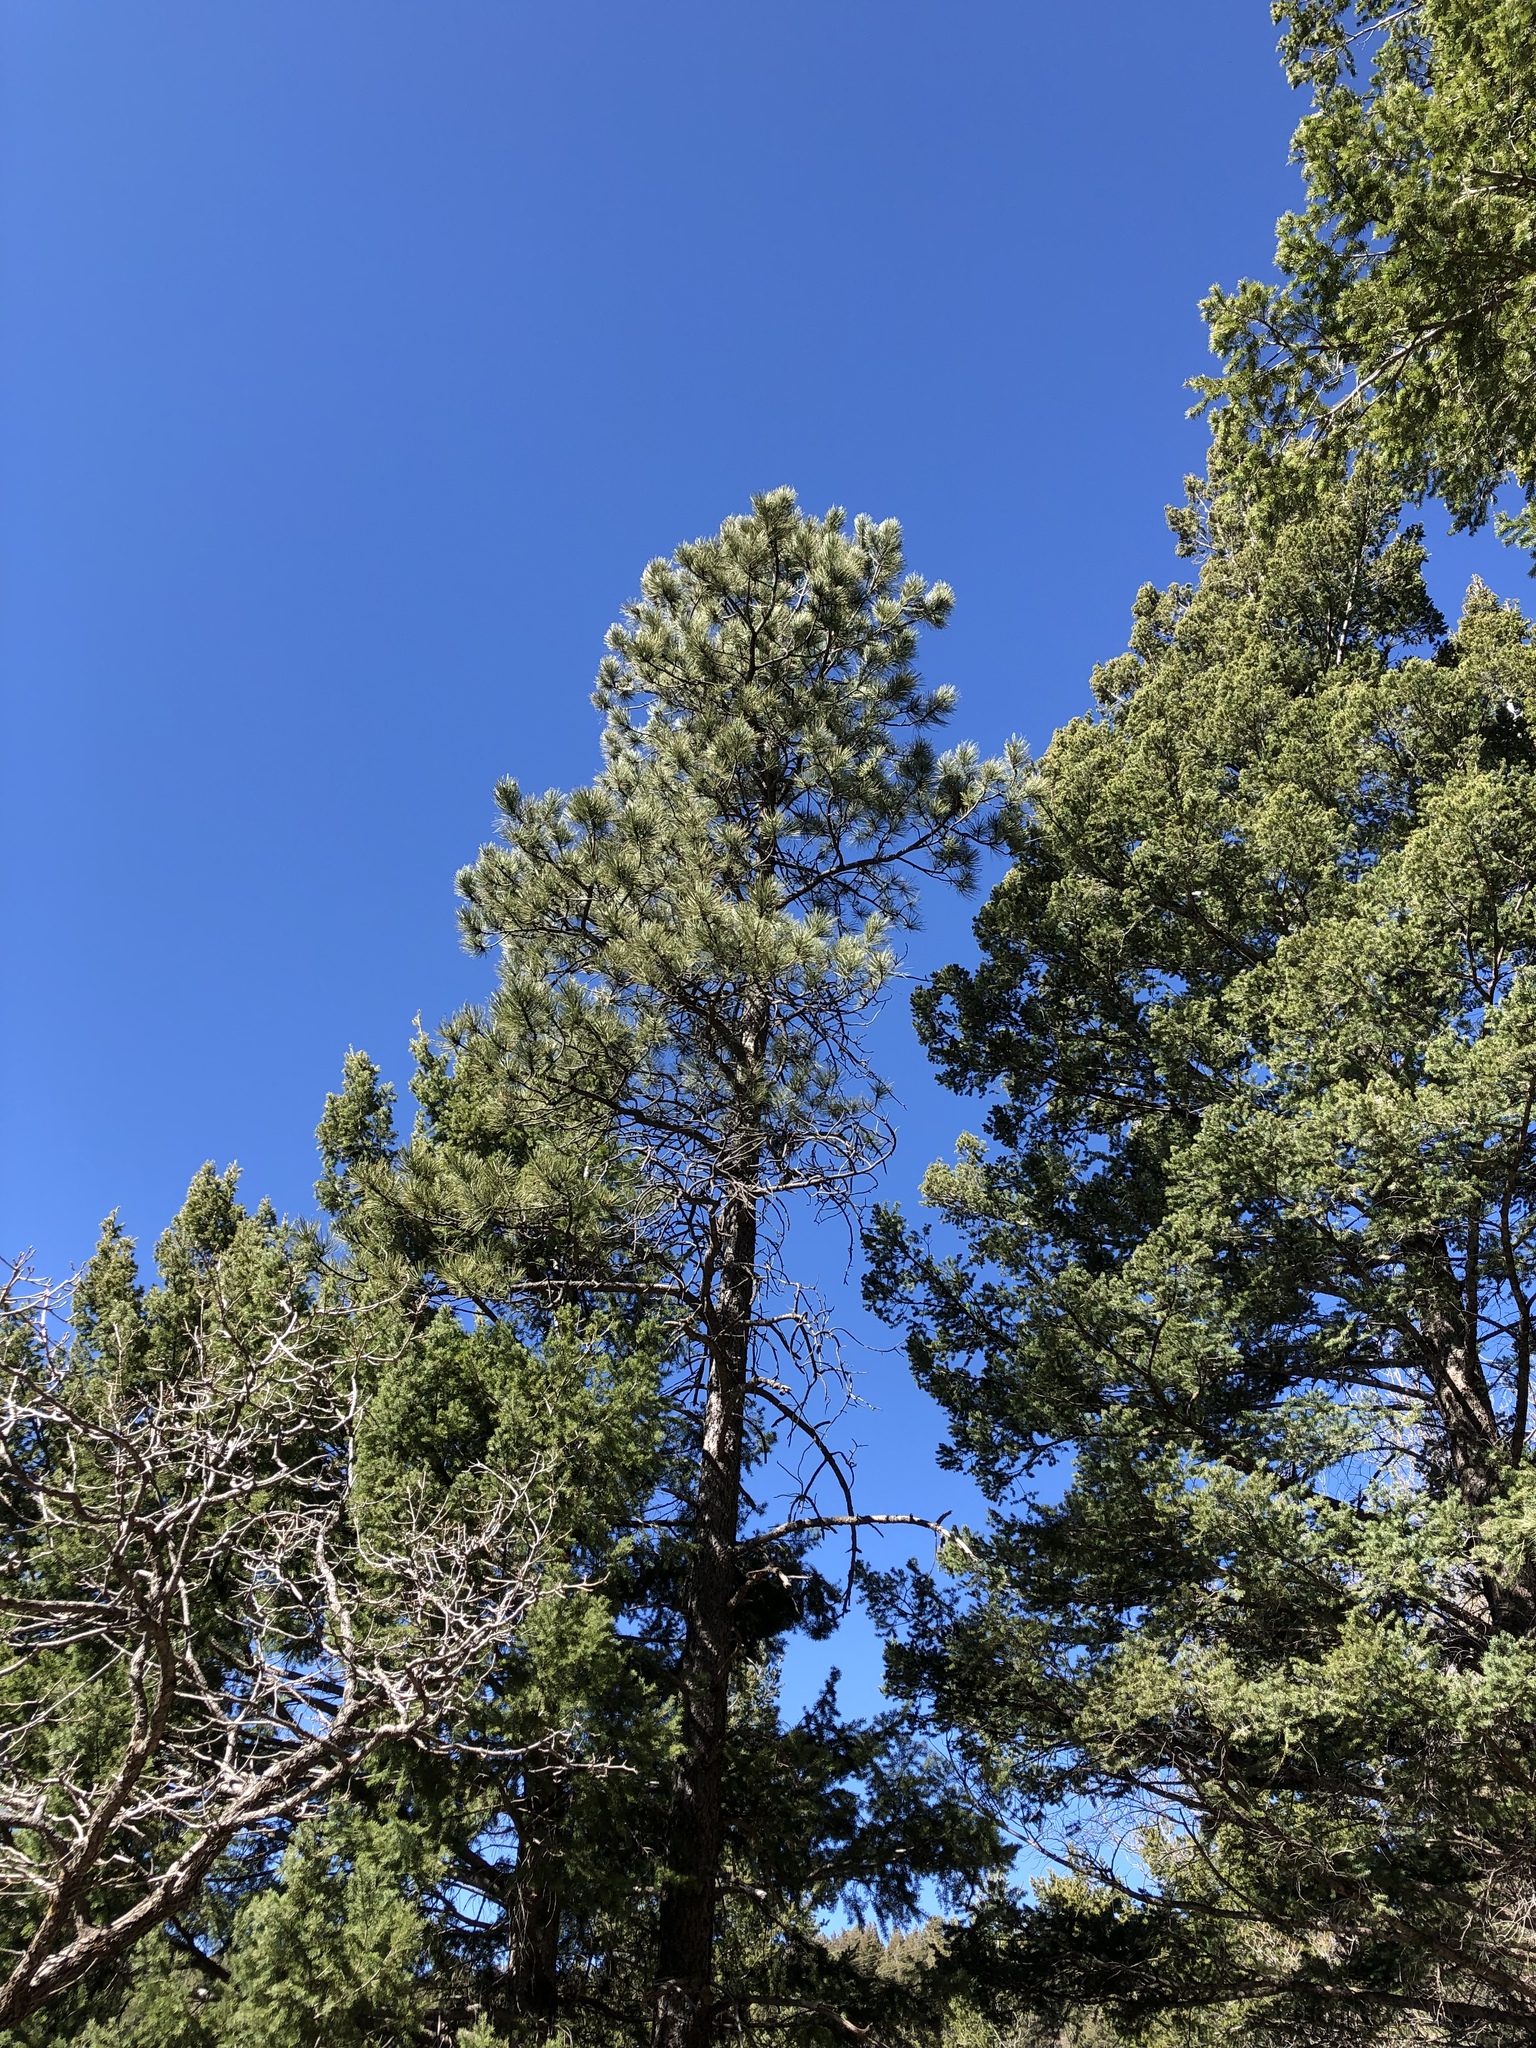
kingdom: Plantae
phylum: Tracheophyta
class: Pinopsida
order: Pinales
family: Pinaceae
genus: Pinus
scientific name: Pinus ponderosa
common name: Western yellow-pine
